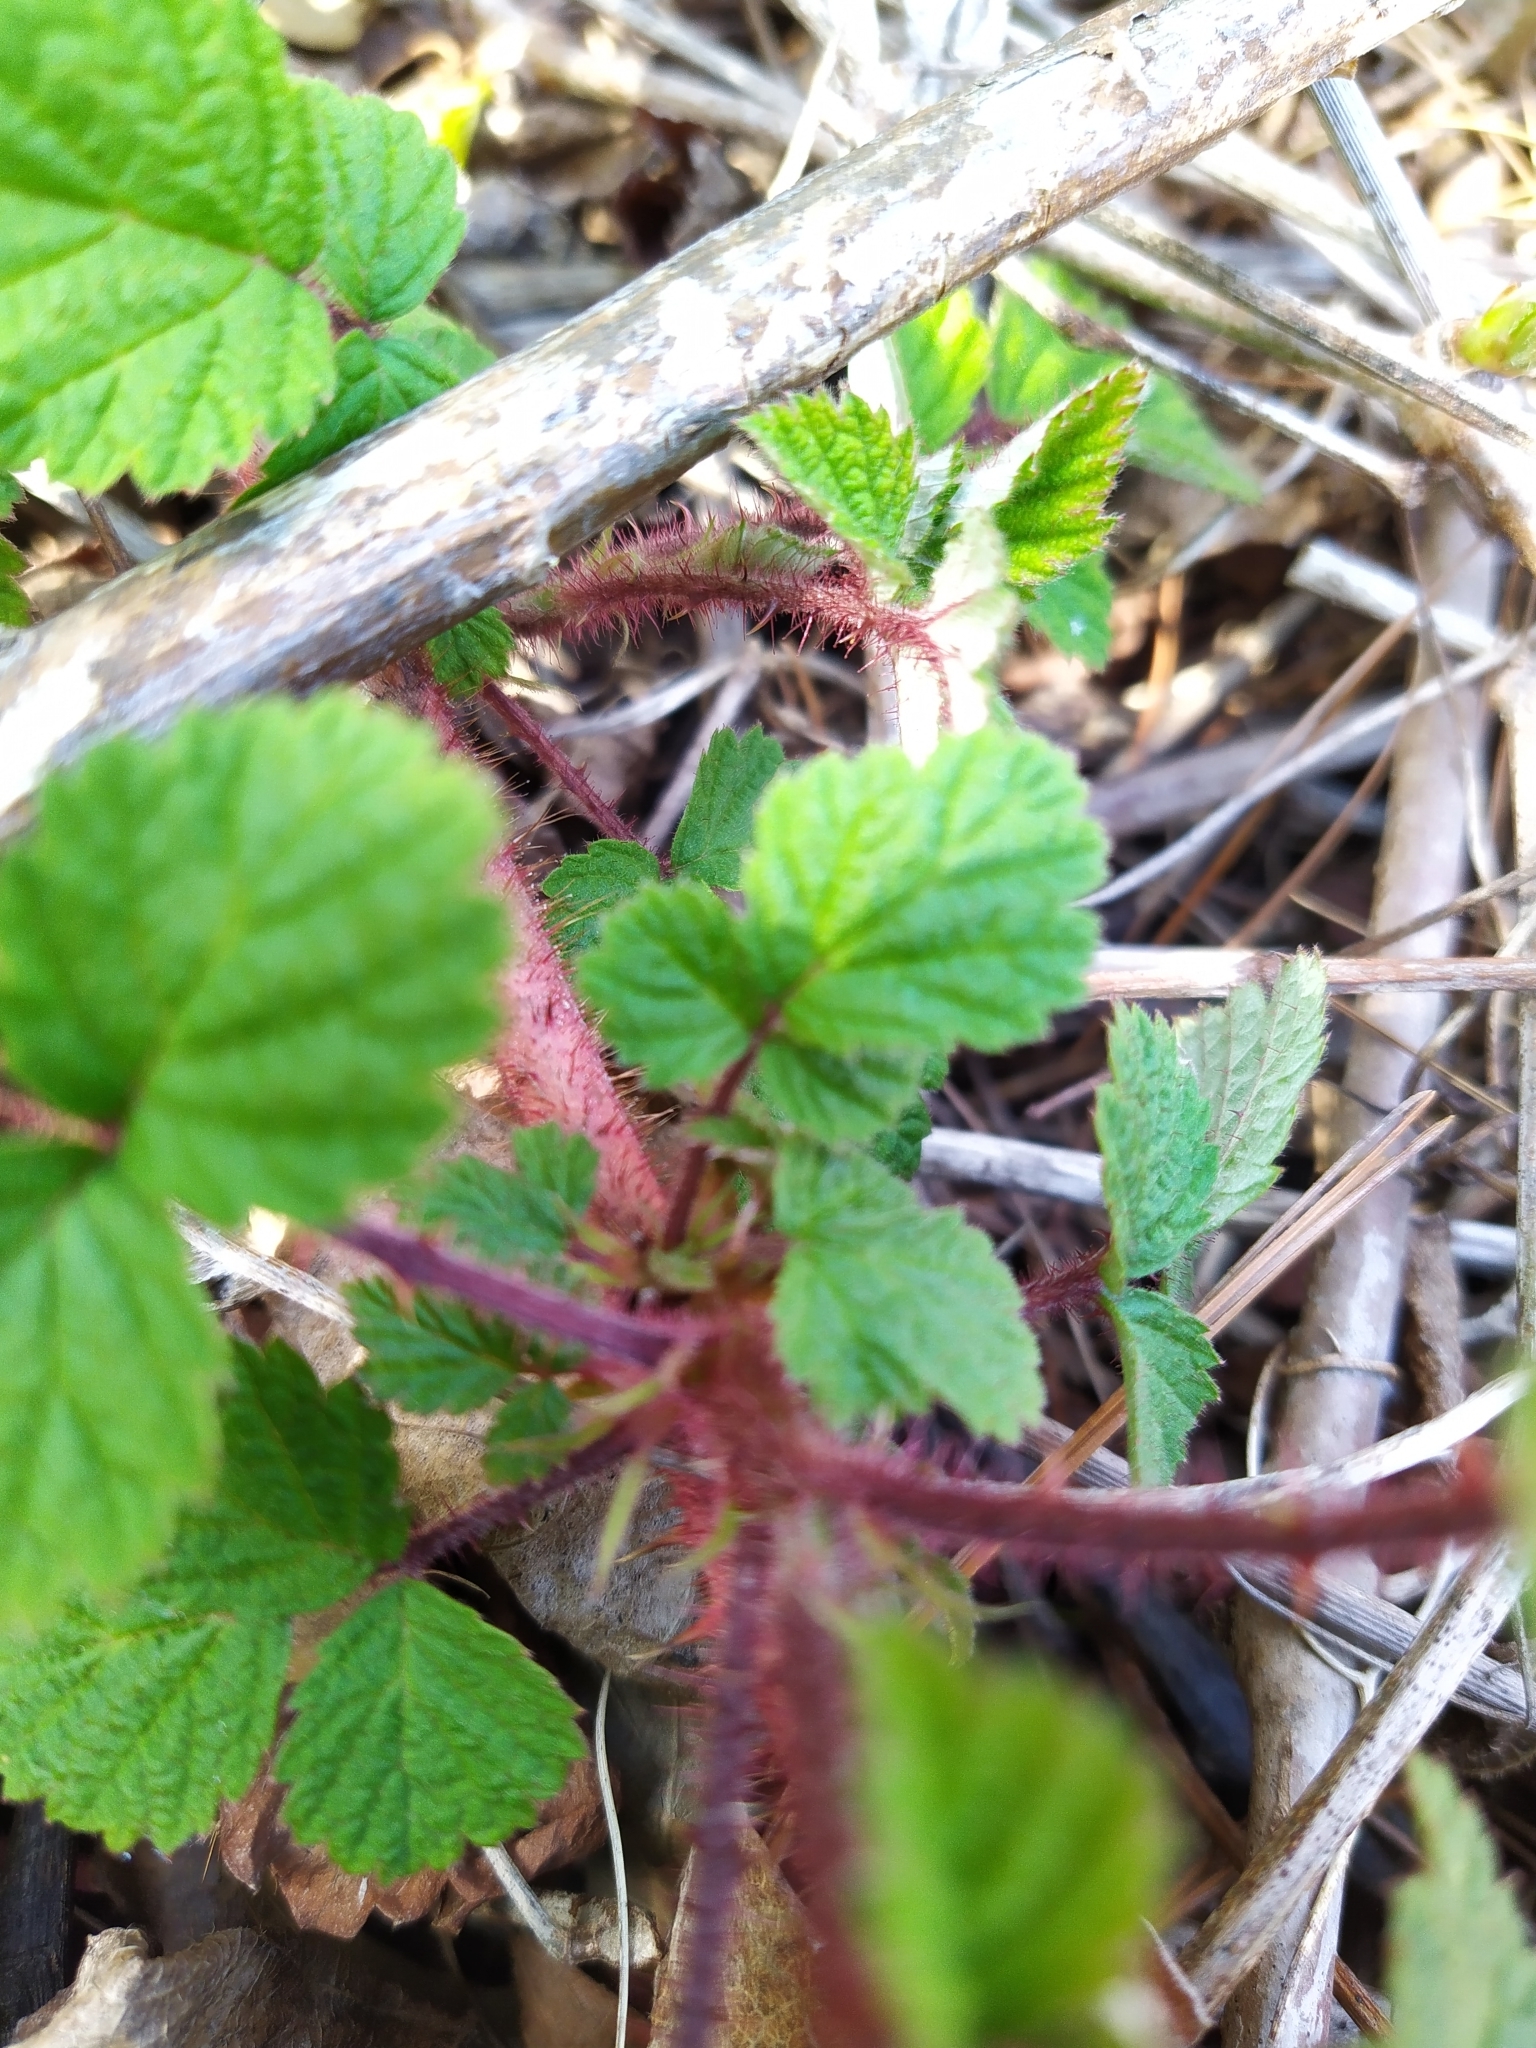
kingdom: Plantae
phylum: Tracheophyta
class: Magnoliopsida
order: Rosales
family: Rosaceae
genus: Rubus
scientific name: Rubus phoenicolasius
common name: Japanese wineberry
